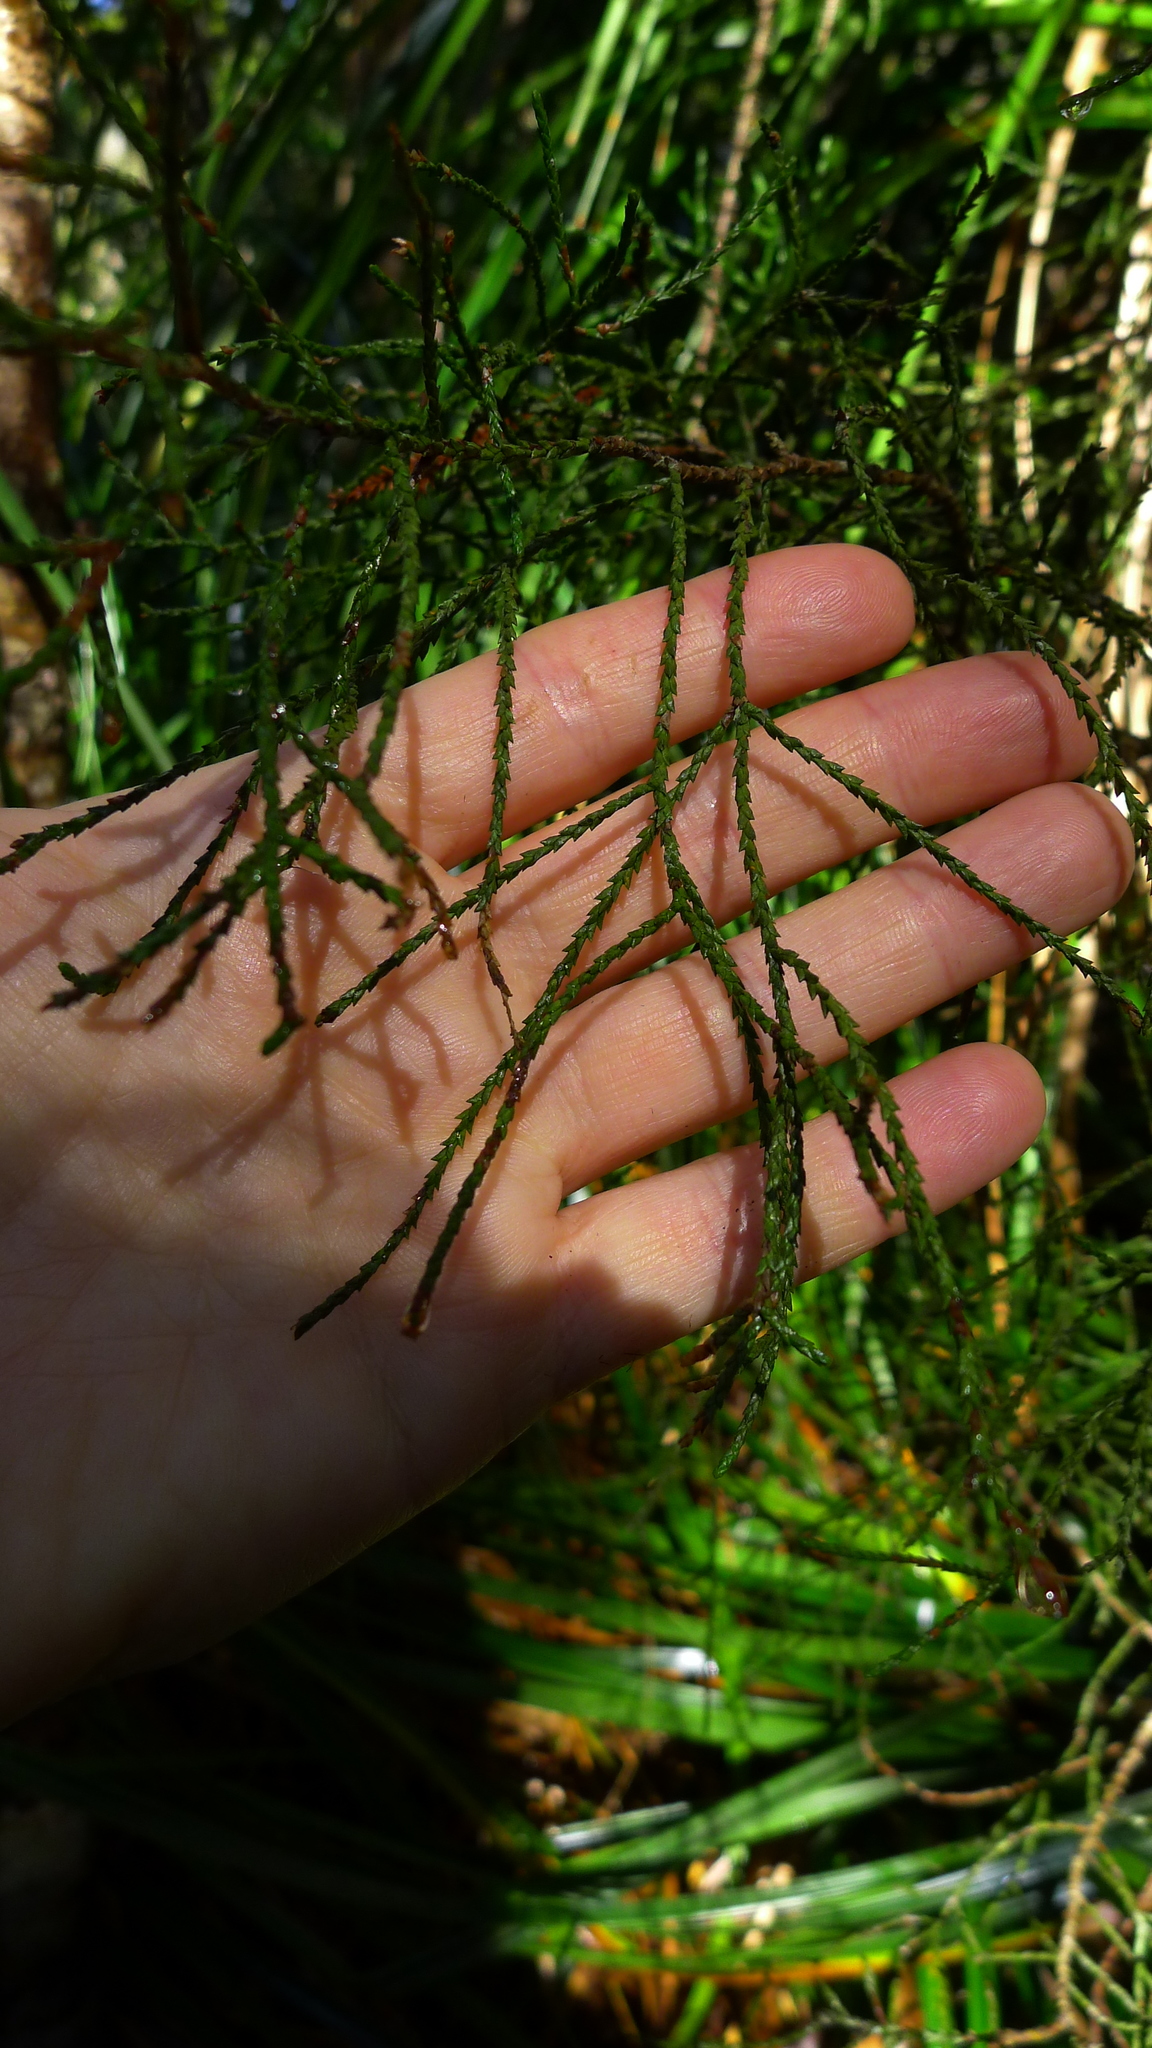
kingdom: Plantae
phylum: Tracheophyta
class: Pinopsida
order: Pinales
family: Podocarpaceae
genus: Manoao
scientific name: Manoao colensoi
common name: Silver pine
